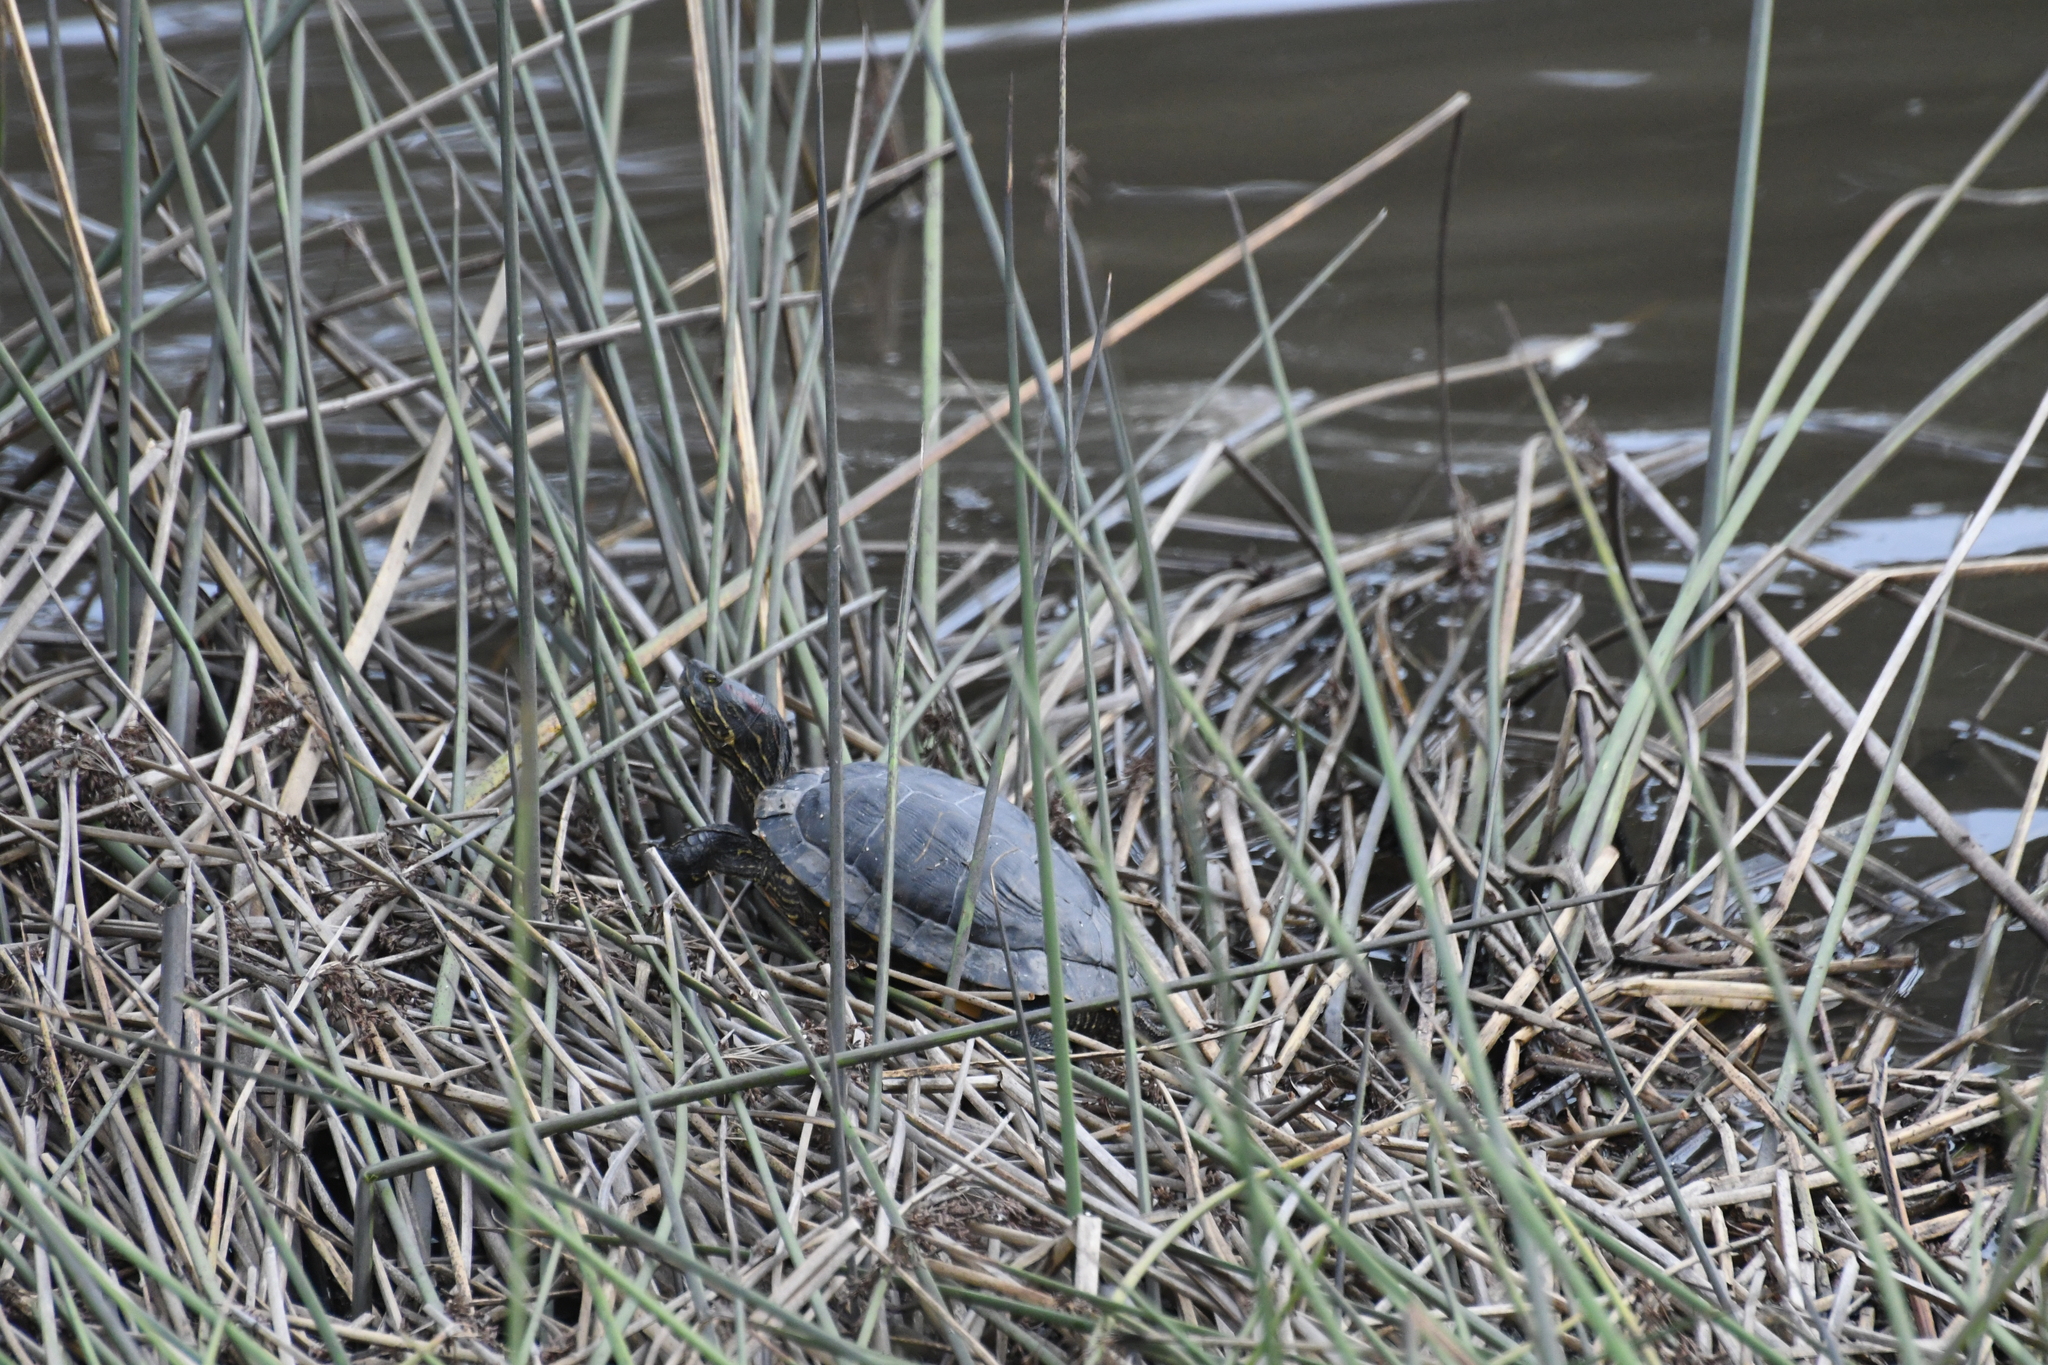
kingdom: Animalia
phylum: Chordata
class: Testudines
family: Emydidae
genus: Trachemys
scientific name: Trachemys scripta
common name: Slider
